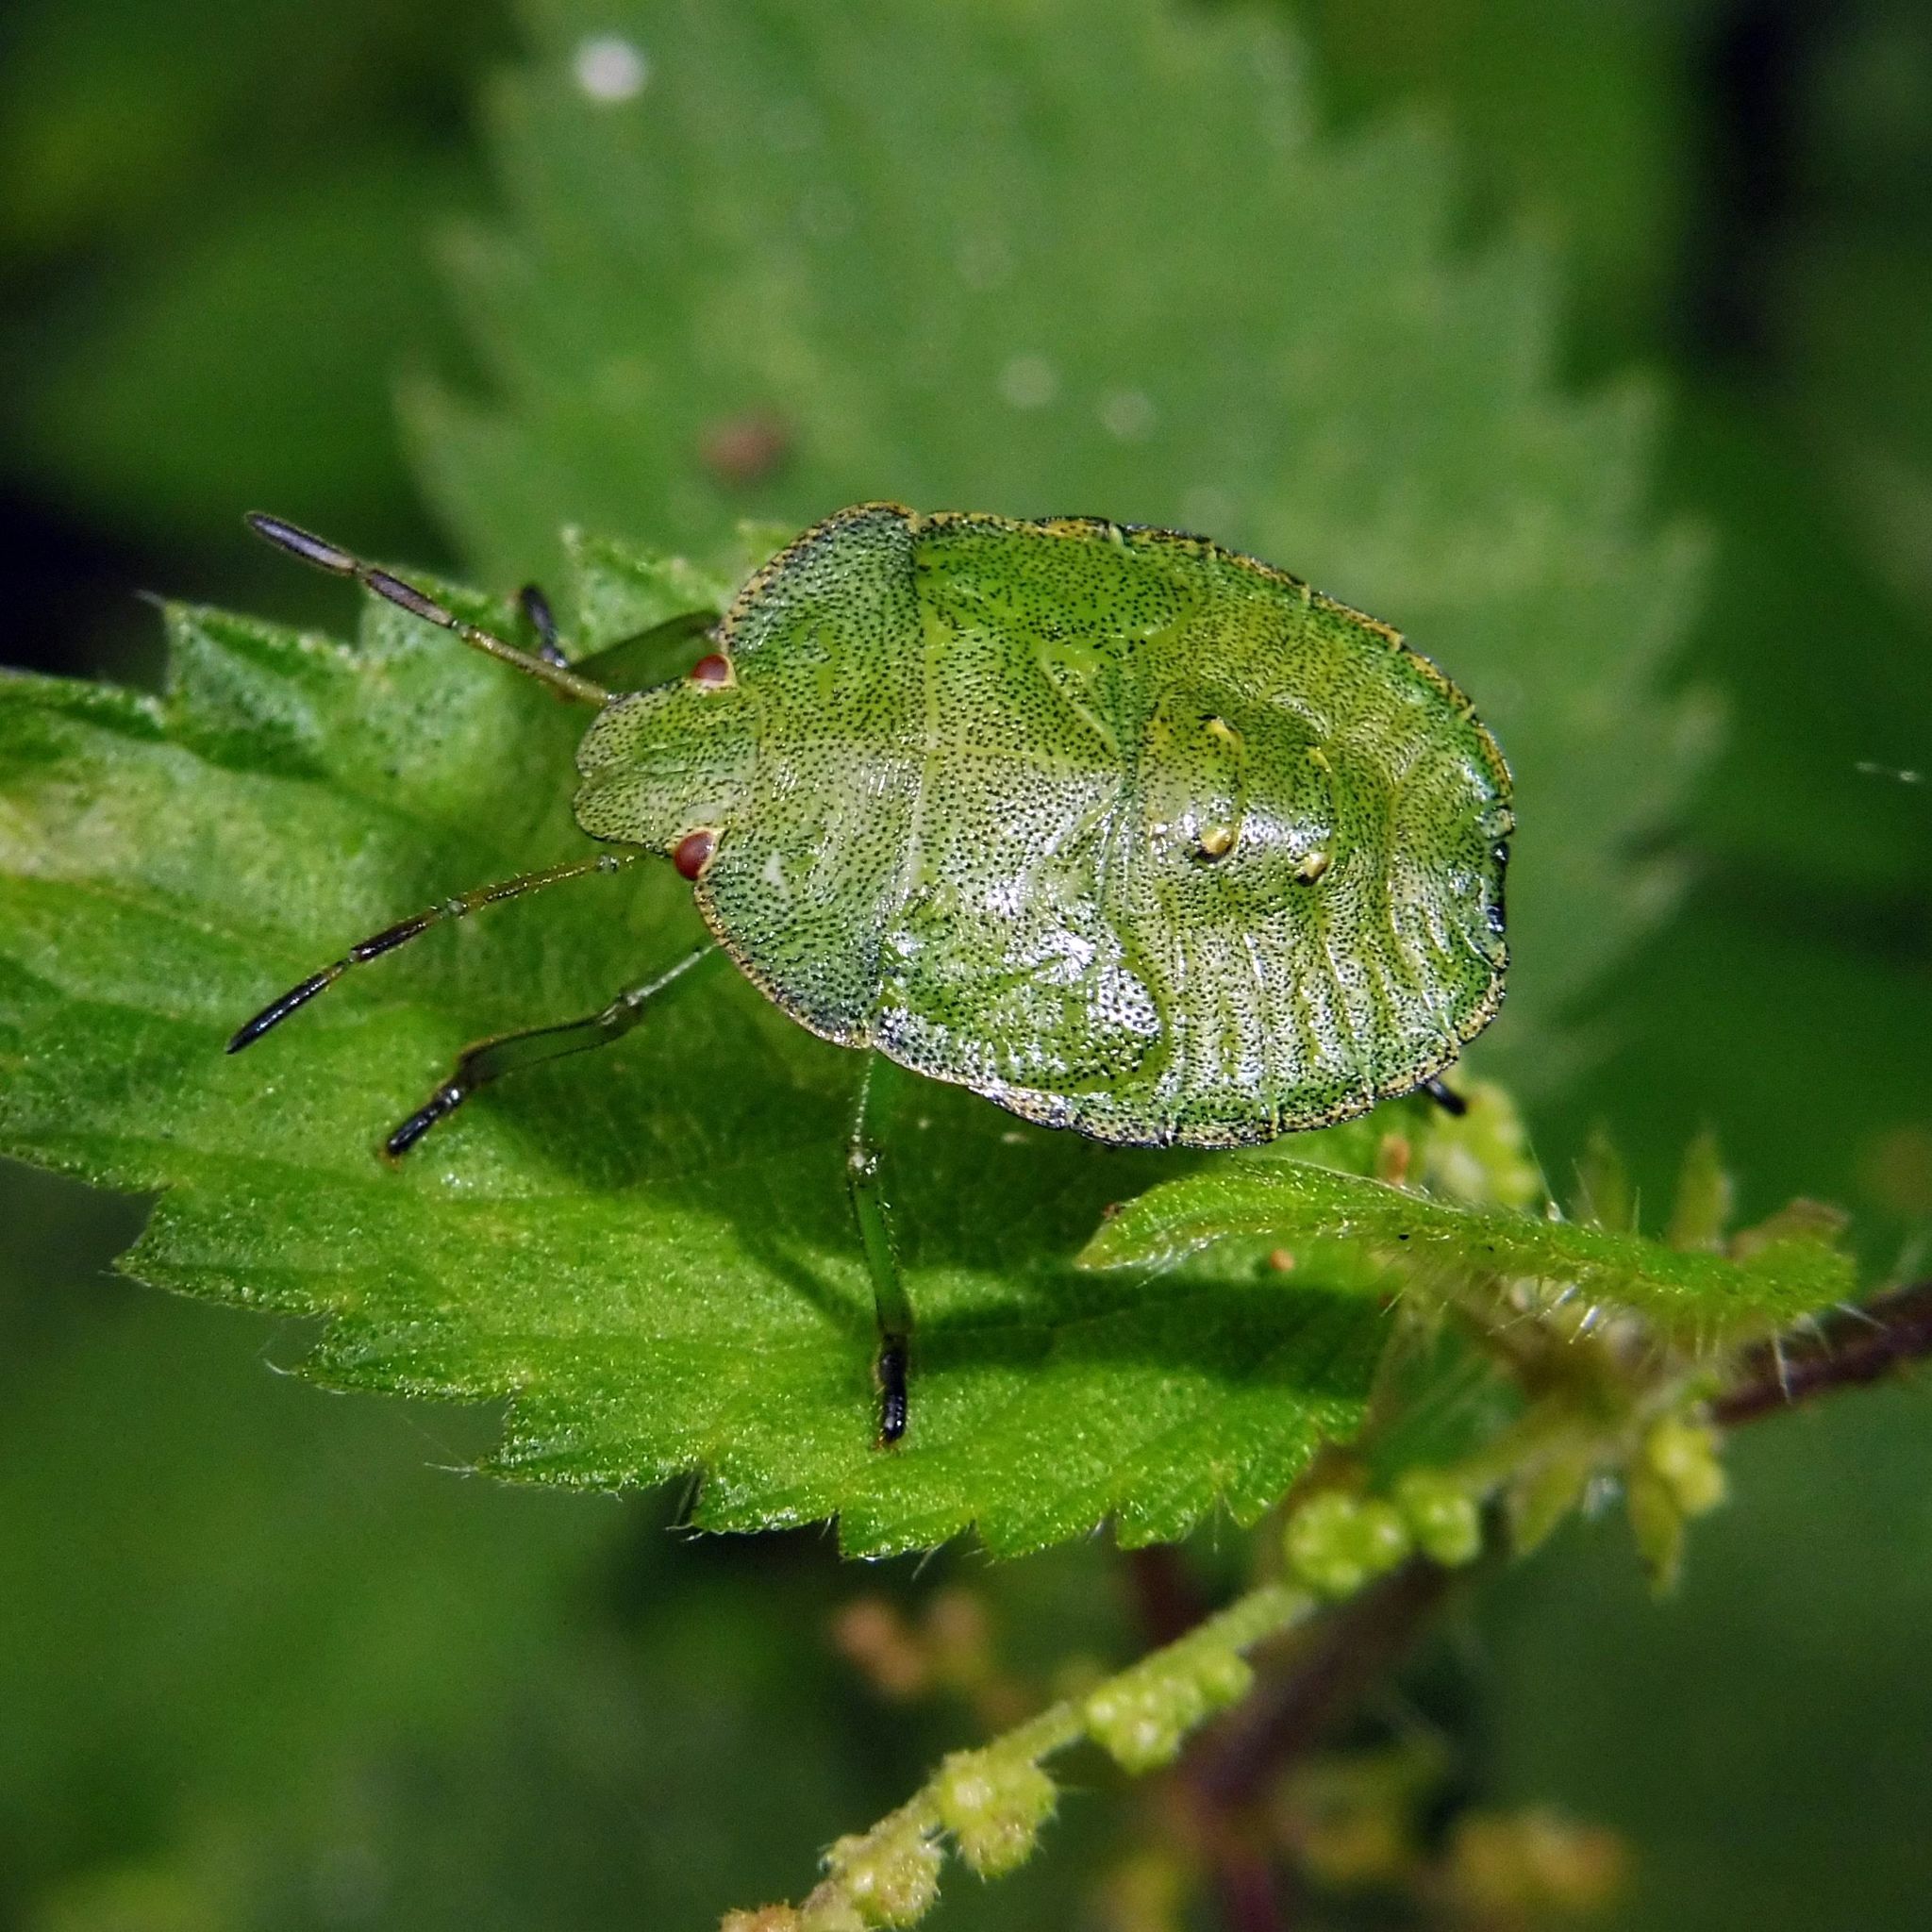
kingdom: Animalia
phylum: Arthropoda
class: Insecta
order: Hemiptera
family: Pentatomidae
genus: Palomena
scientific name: Palomena prasina
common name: Green shieldbug
